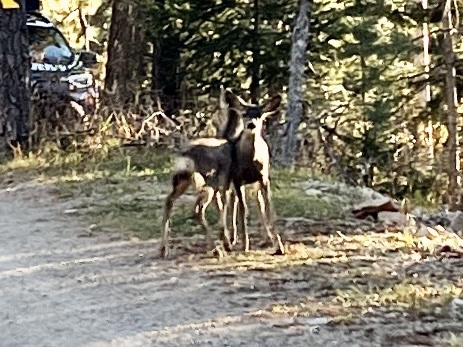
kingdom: Animalia
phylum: Chordata
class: Mammalia
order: Artiodactyla
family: Cervidae
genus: Odocoileus
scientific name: Odocoileus hemionus
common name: Mule deer
